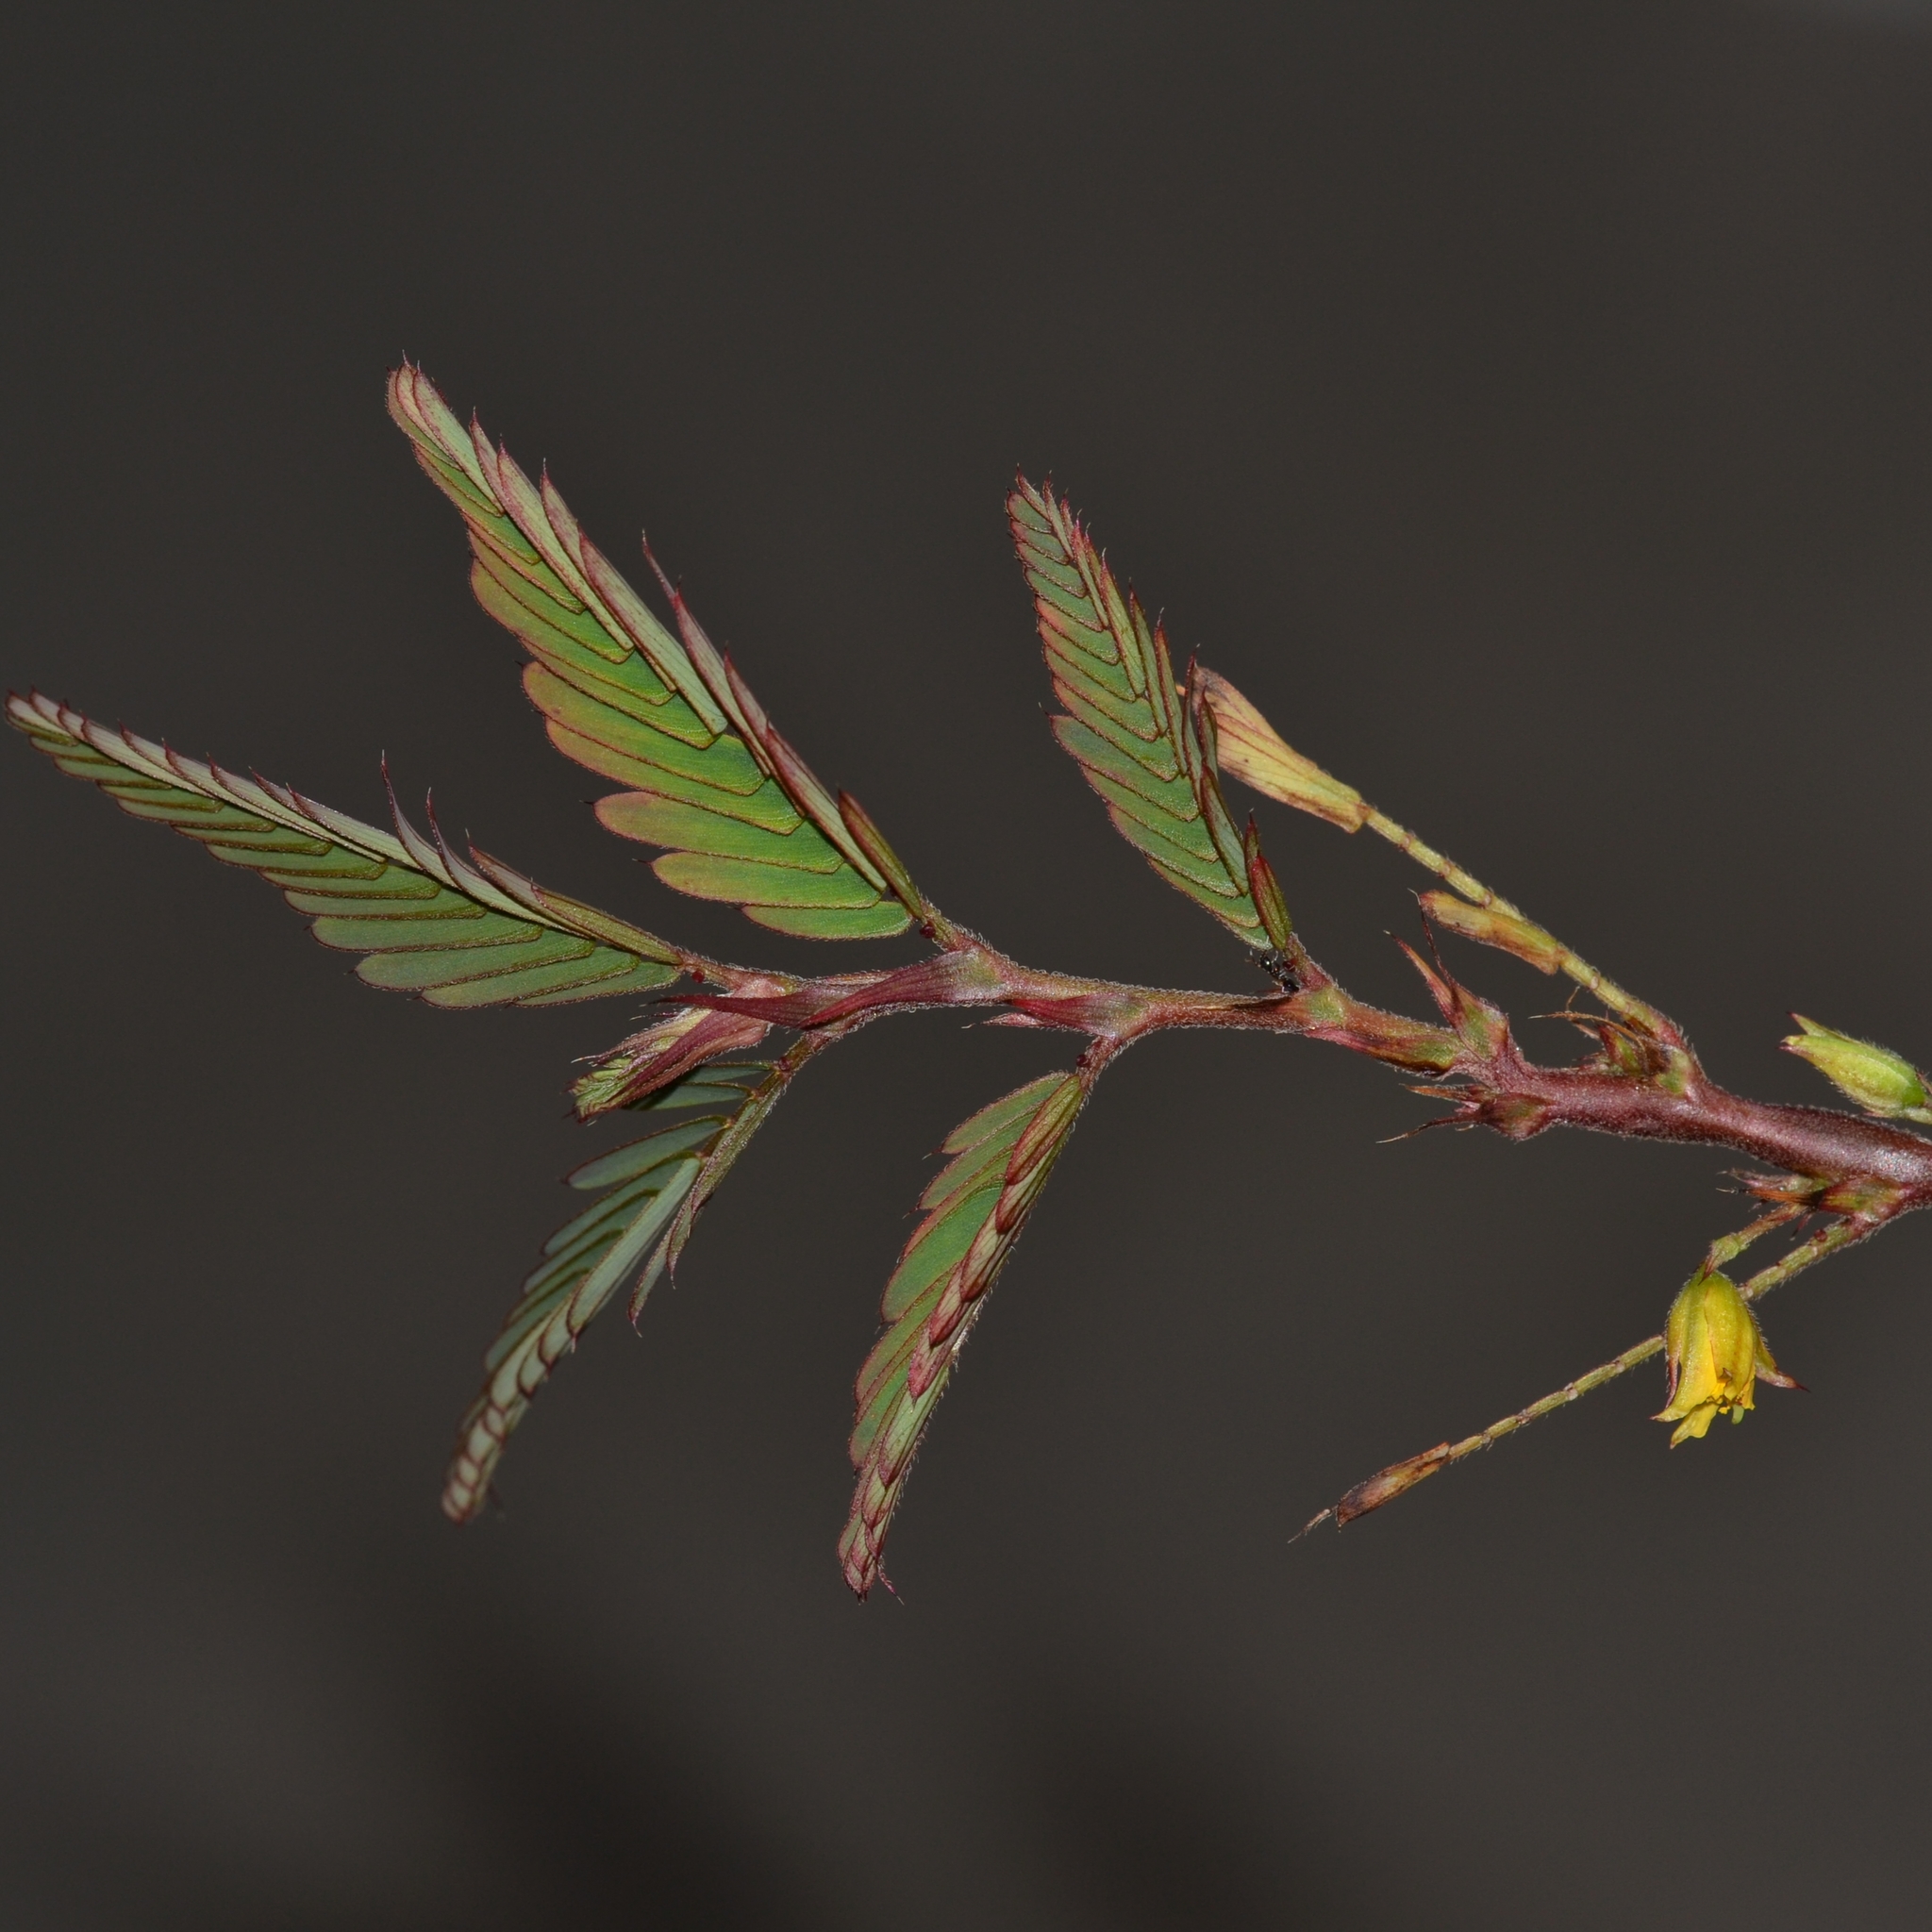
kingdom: Plantae
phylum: Tracheophyta
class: Magnoliopsida
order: Fabales
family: Fabaceae
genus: Chamaecrista
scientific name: Chamaecrista nictitans
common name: Sensitive cassia
